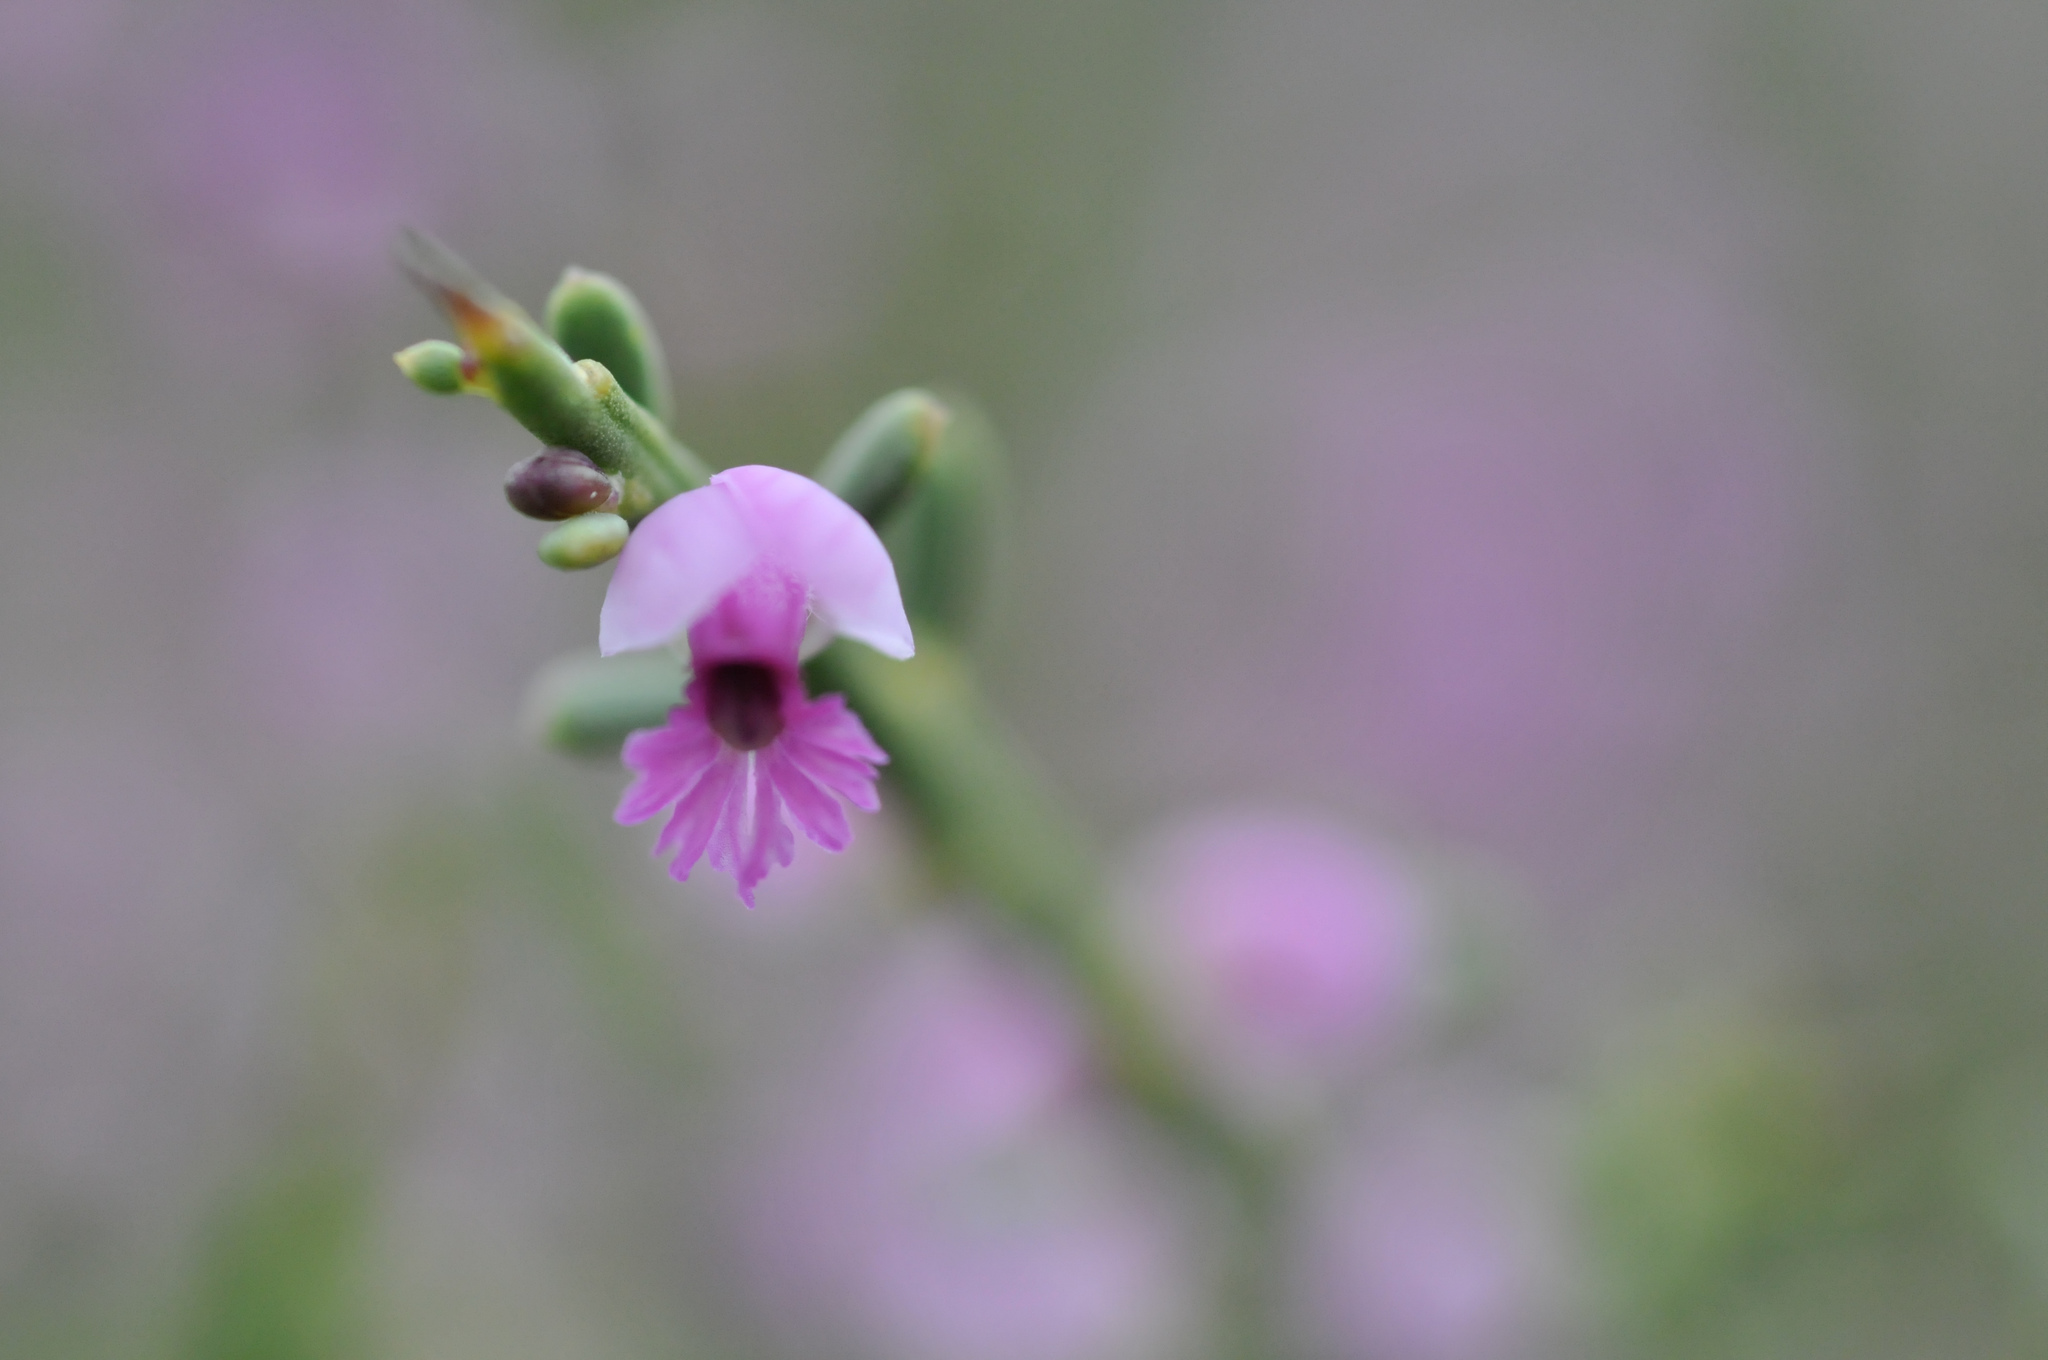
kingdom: Plantae
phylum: Tracheophyta
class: Magnoliopsida
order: Fabales
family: Polygalaceae
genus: Muraltia
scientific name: Muraltia spinosa
